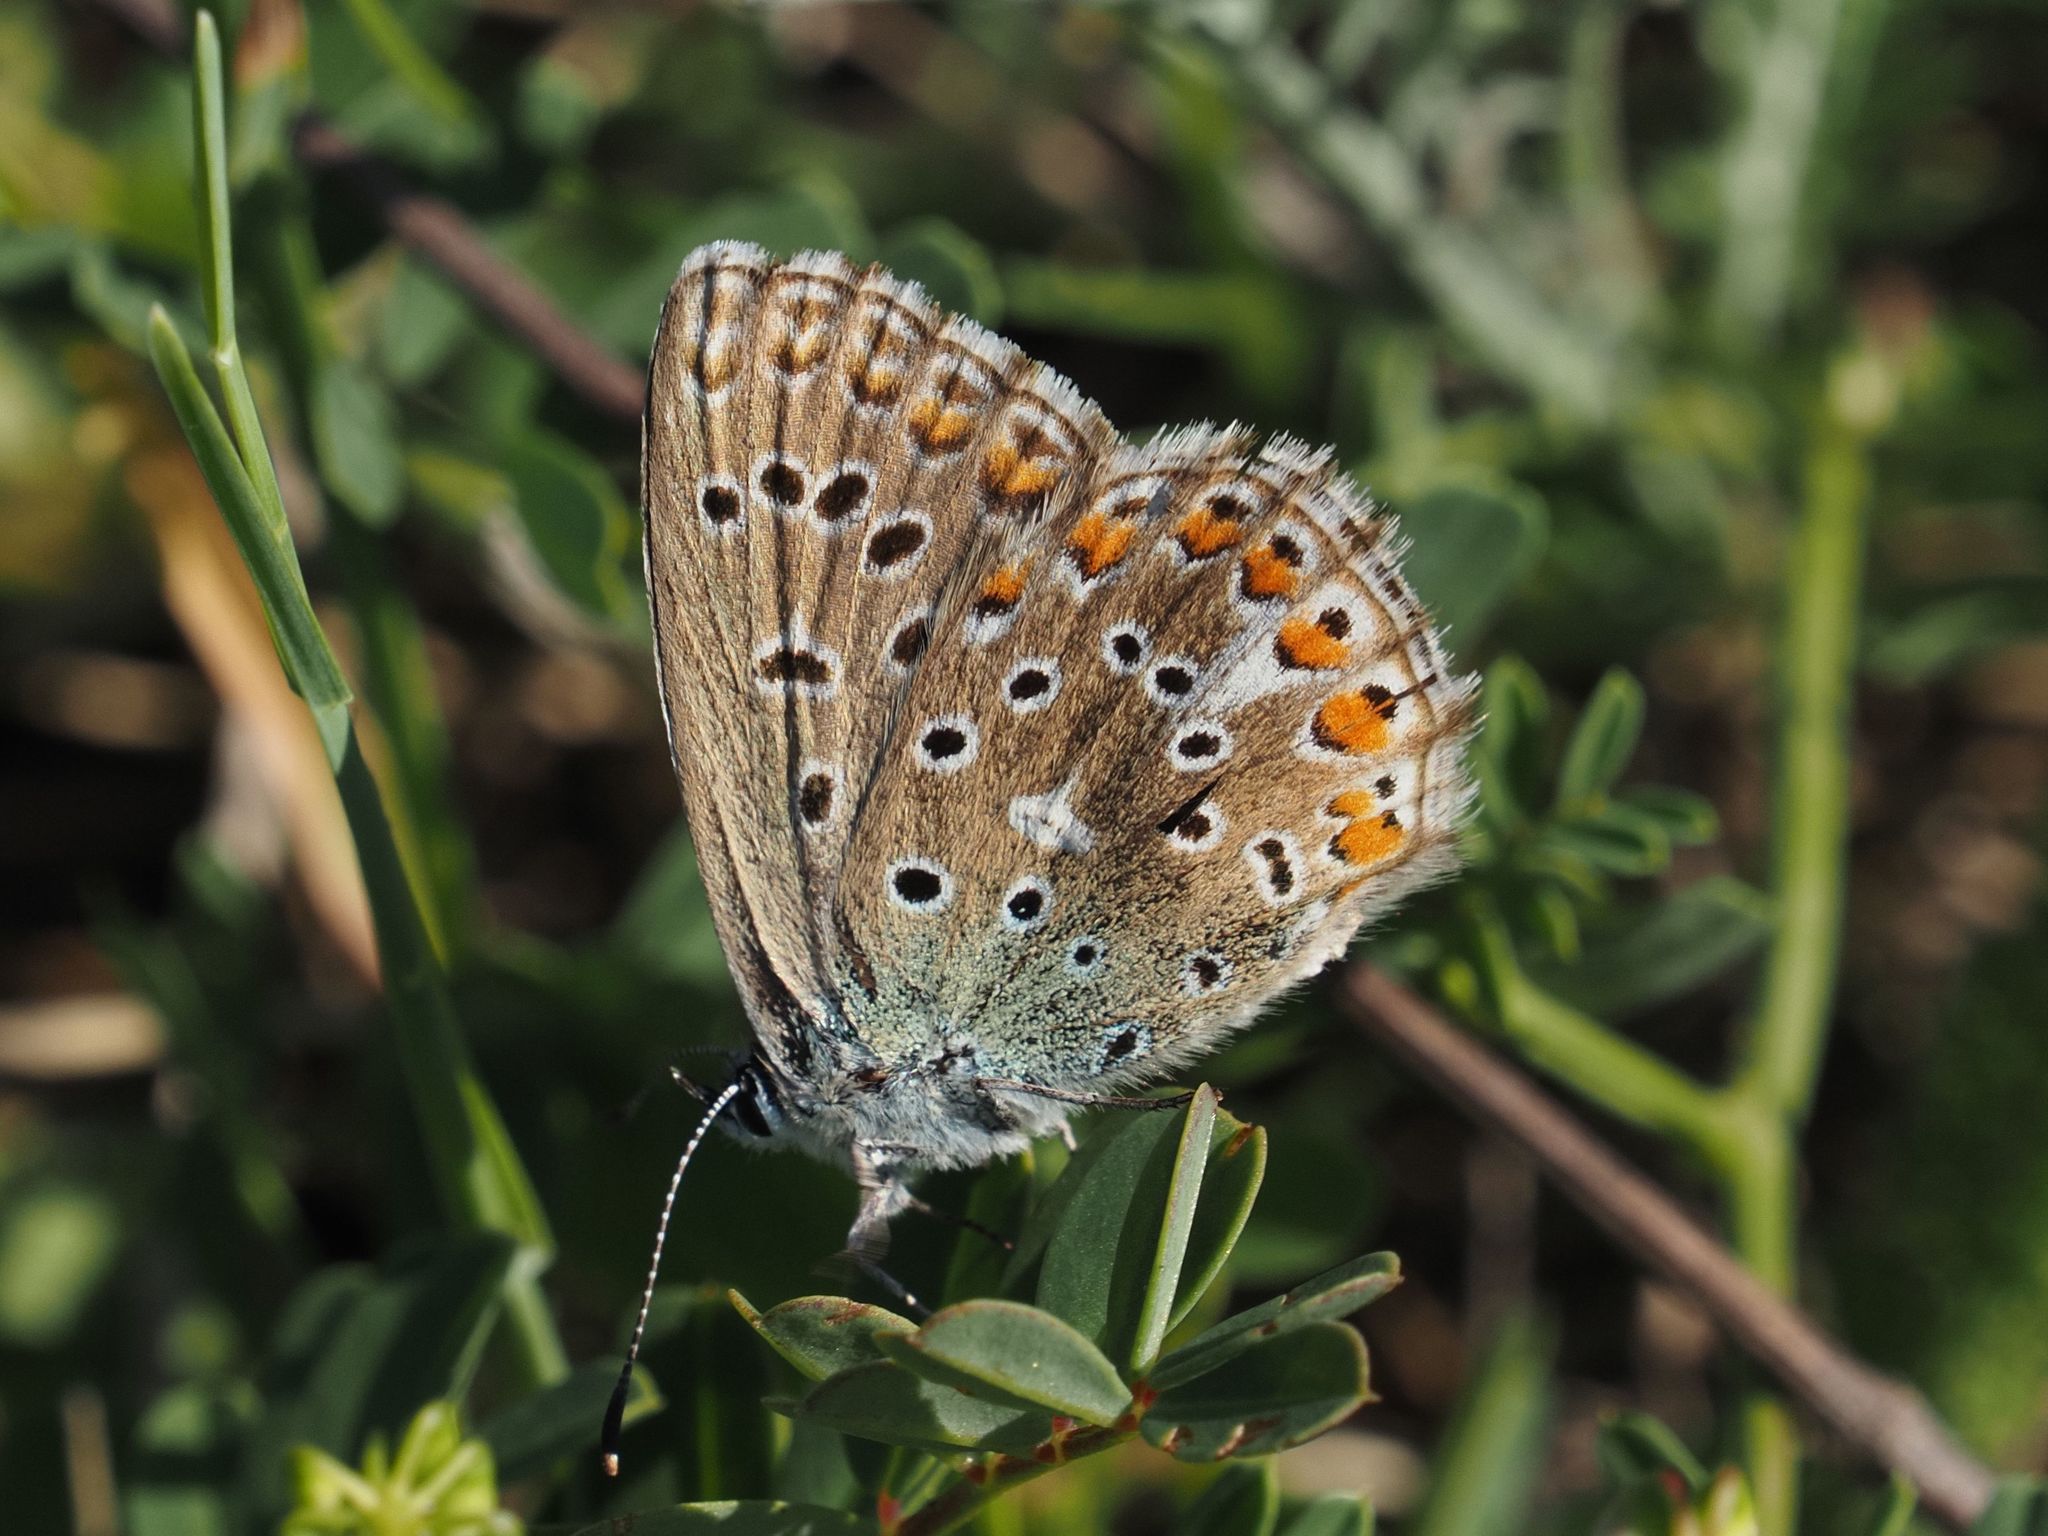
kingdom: Animalia
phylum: Arthropoda
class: Insecta
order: Lepidoptera
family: Lycaenidae
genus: Lysandra
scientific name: Lysandra bellargus
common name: Adonis blue
